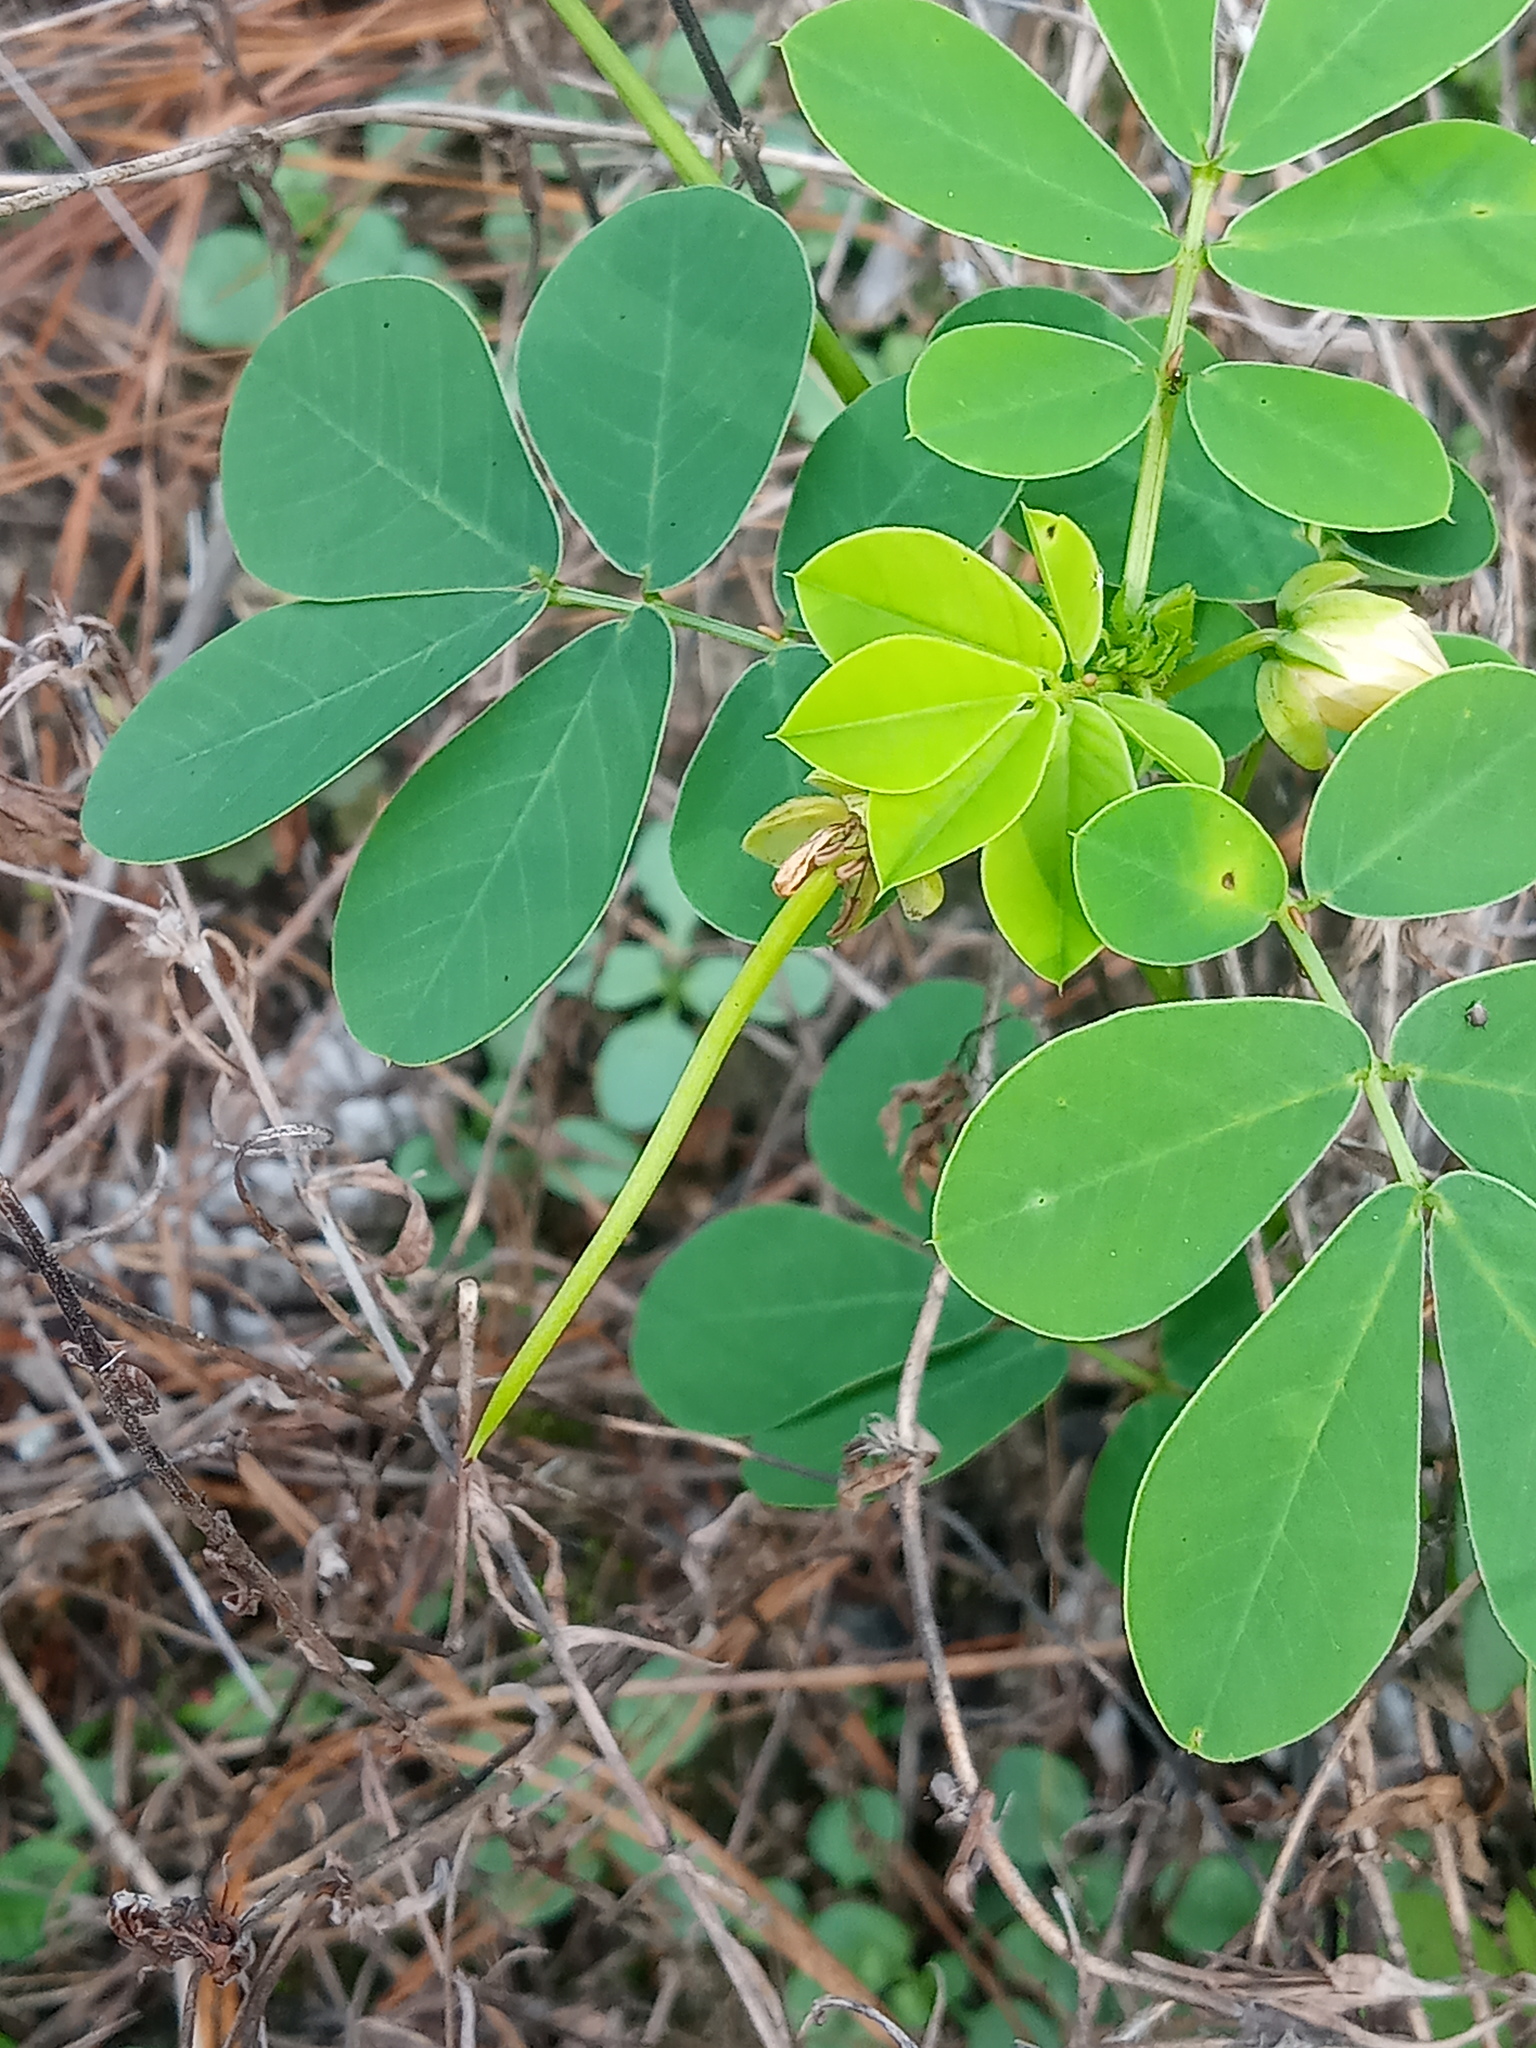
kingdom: Plantae
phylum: Tracheophyta
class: Magnoliopsida
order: Fabales
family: Fabaceae
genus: Senna
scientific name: Senna obtusifolia
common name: Java-bean
